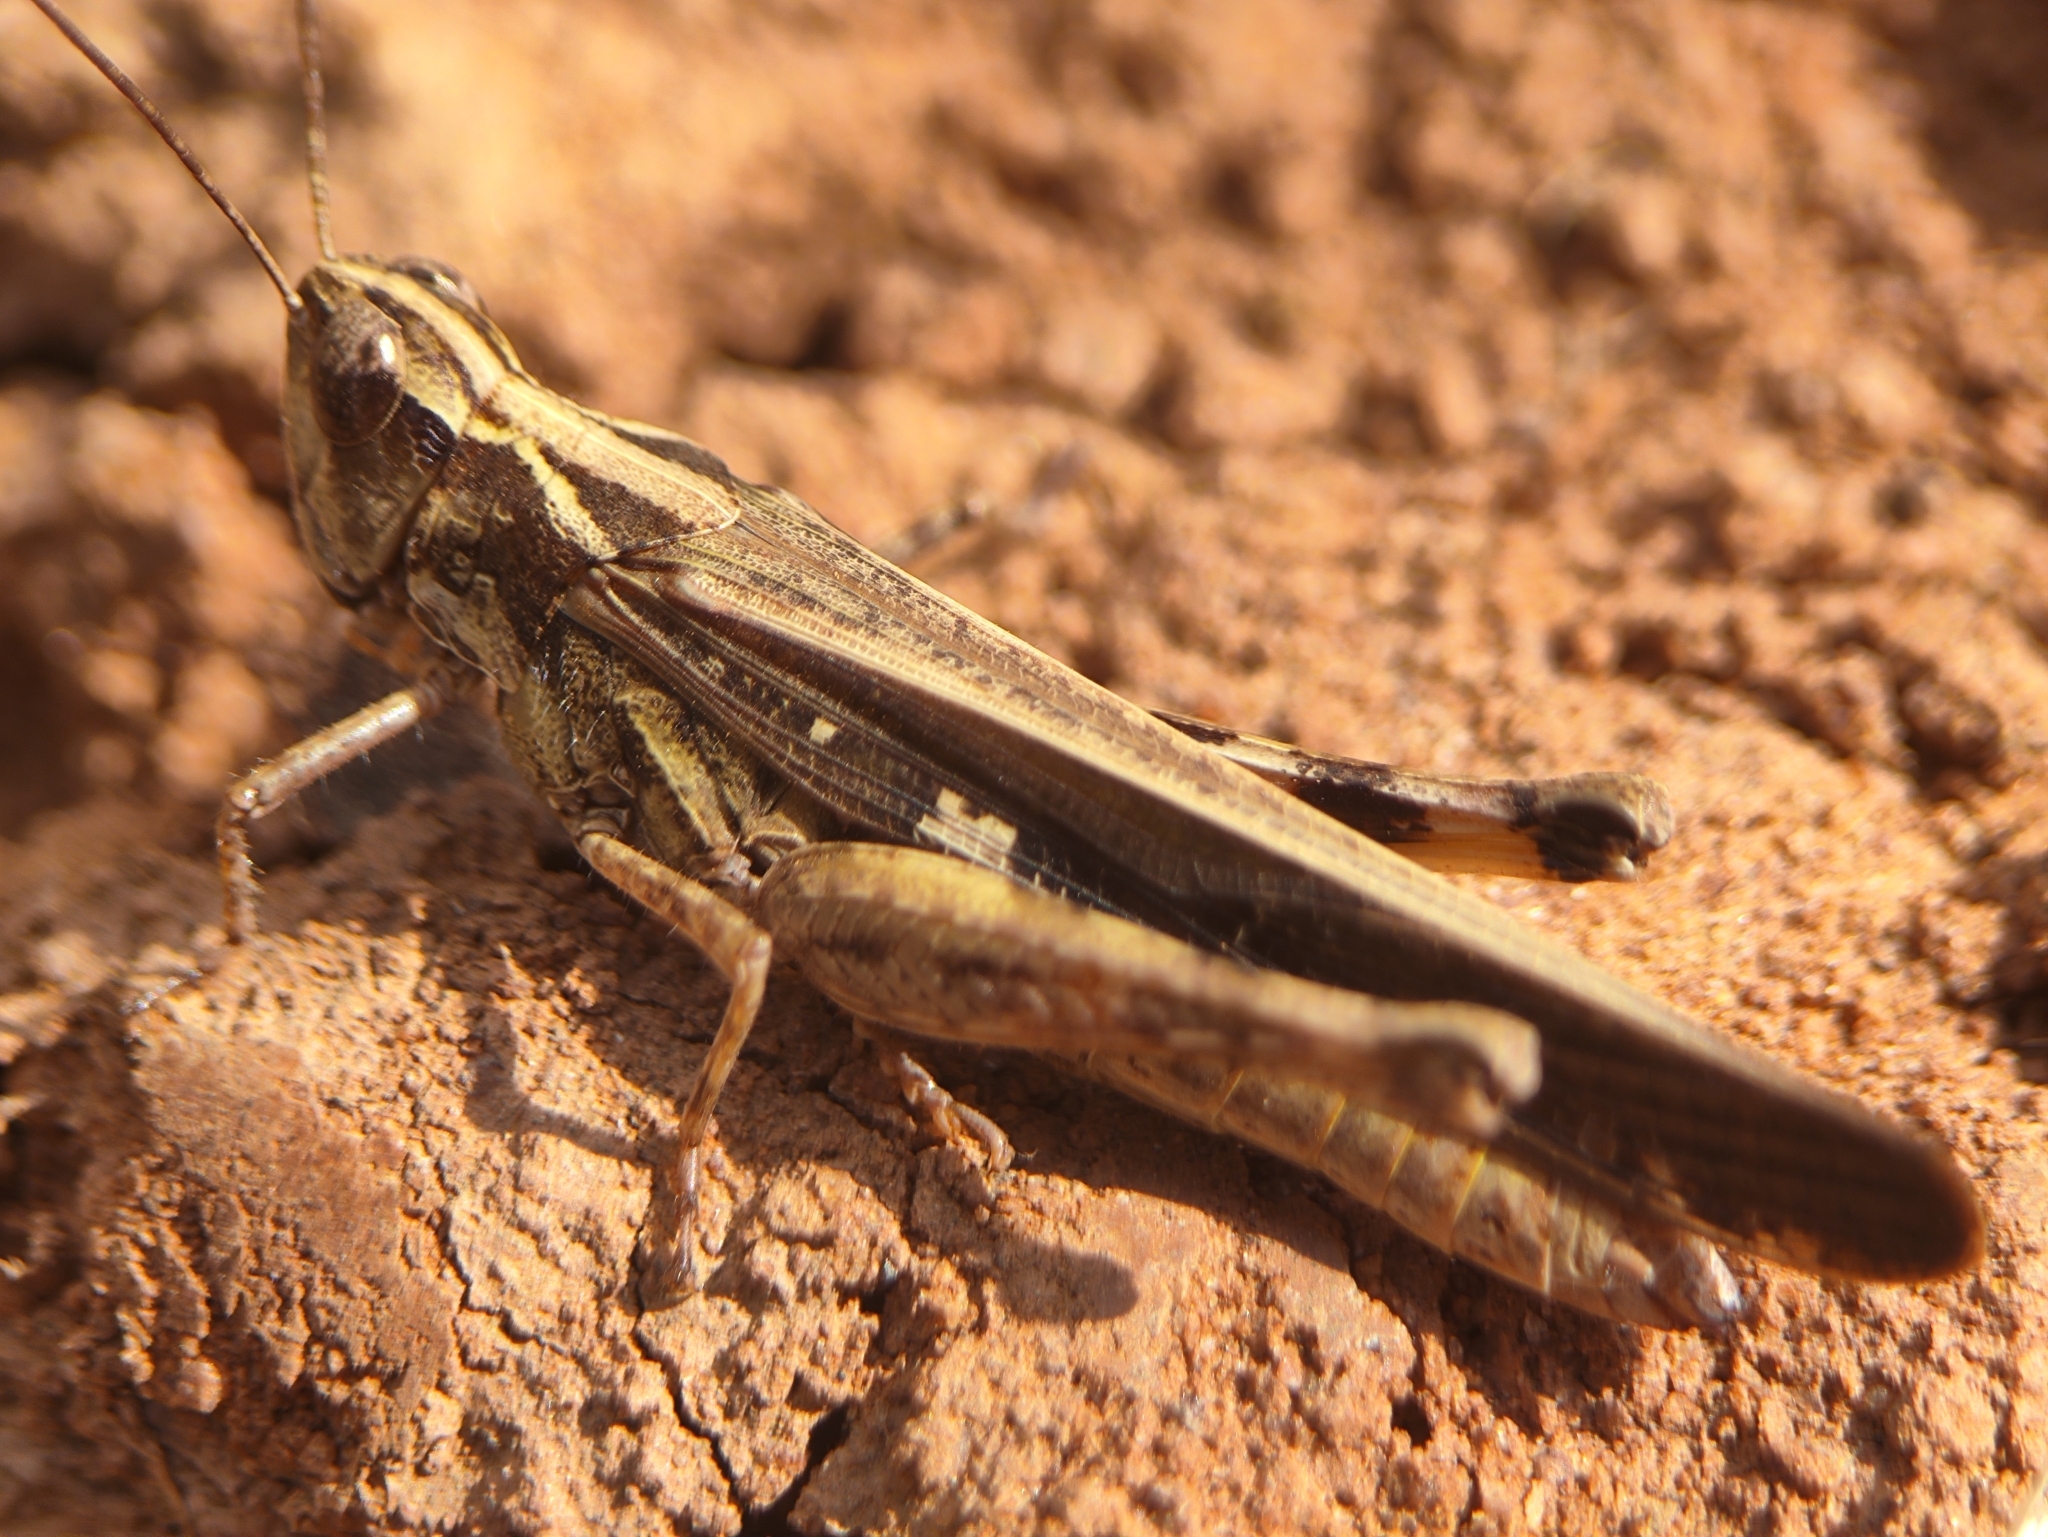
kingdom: Animalia
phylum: Arthropoda
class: Insecta
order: Orthoptera
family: Acrididae
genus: Aiolopus
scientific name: Aiolopus thalassinus
